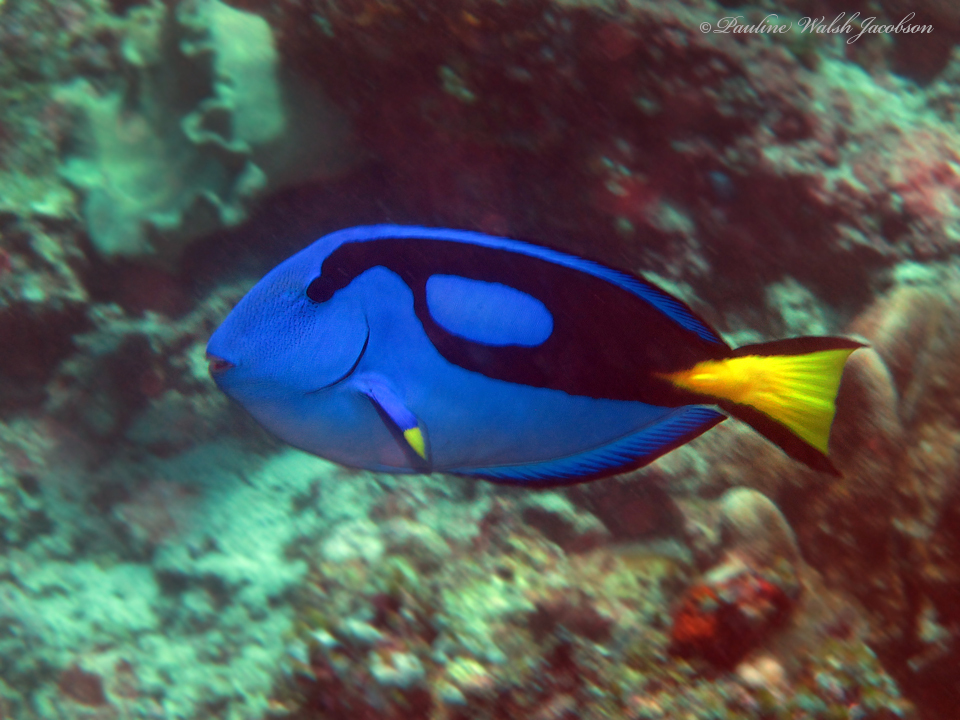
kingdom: Animalia
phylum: Chordata
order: Perciformes
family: Acanthuridae
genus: Paracanthurus
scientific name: Paracanthurus hepatus
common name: Palette surgeonfish
